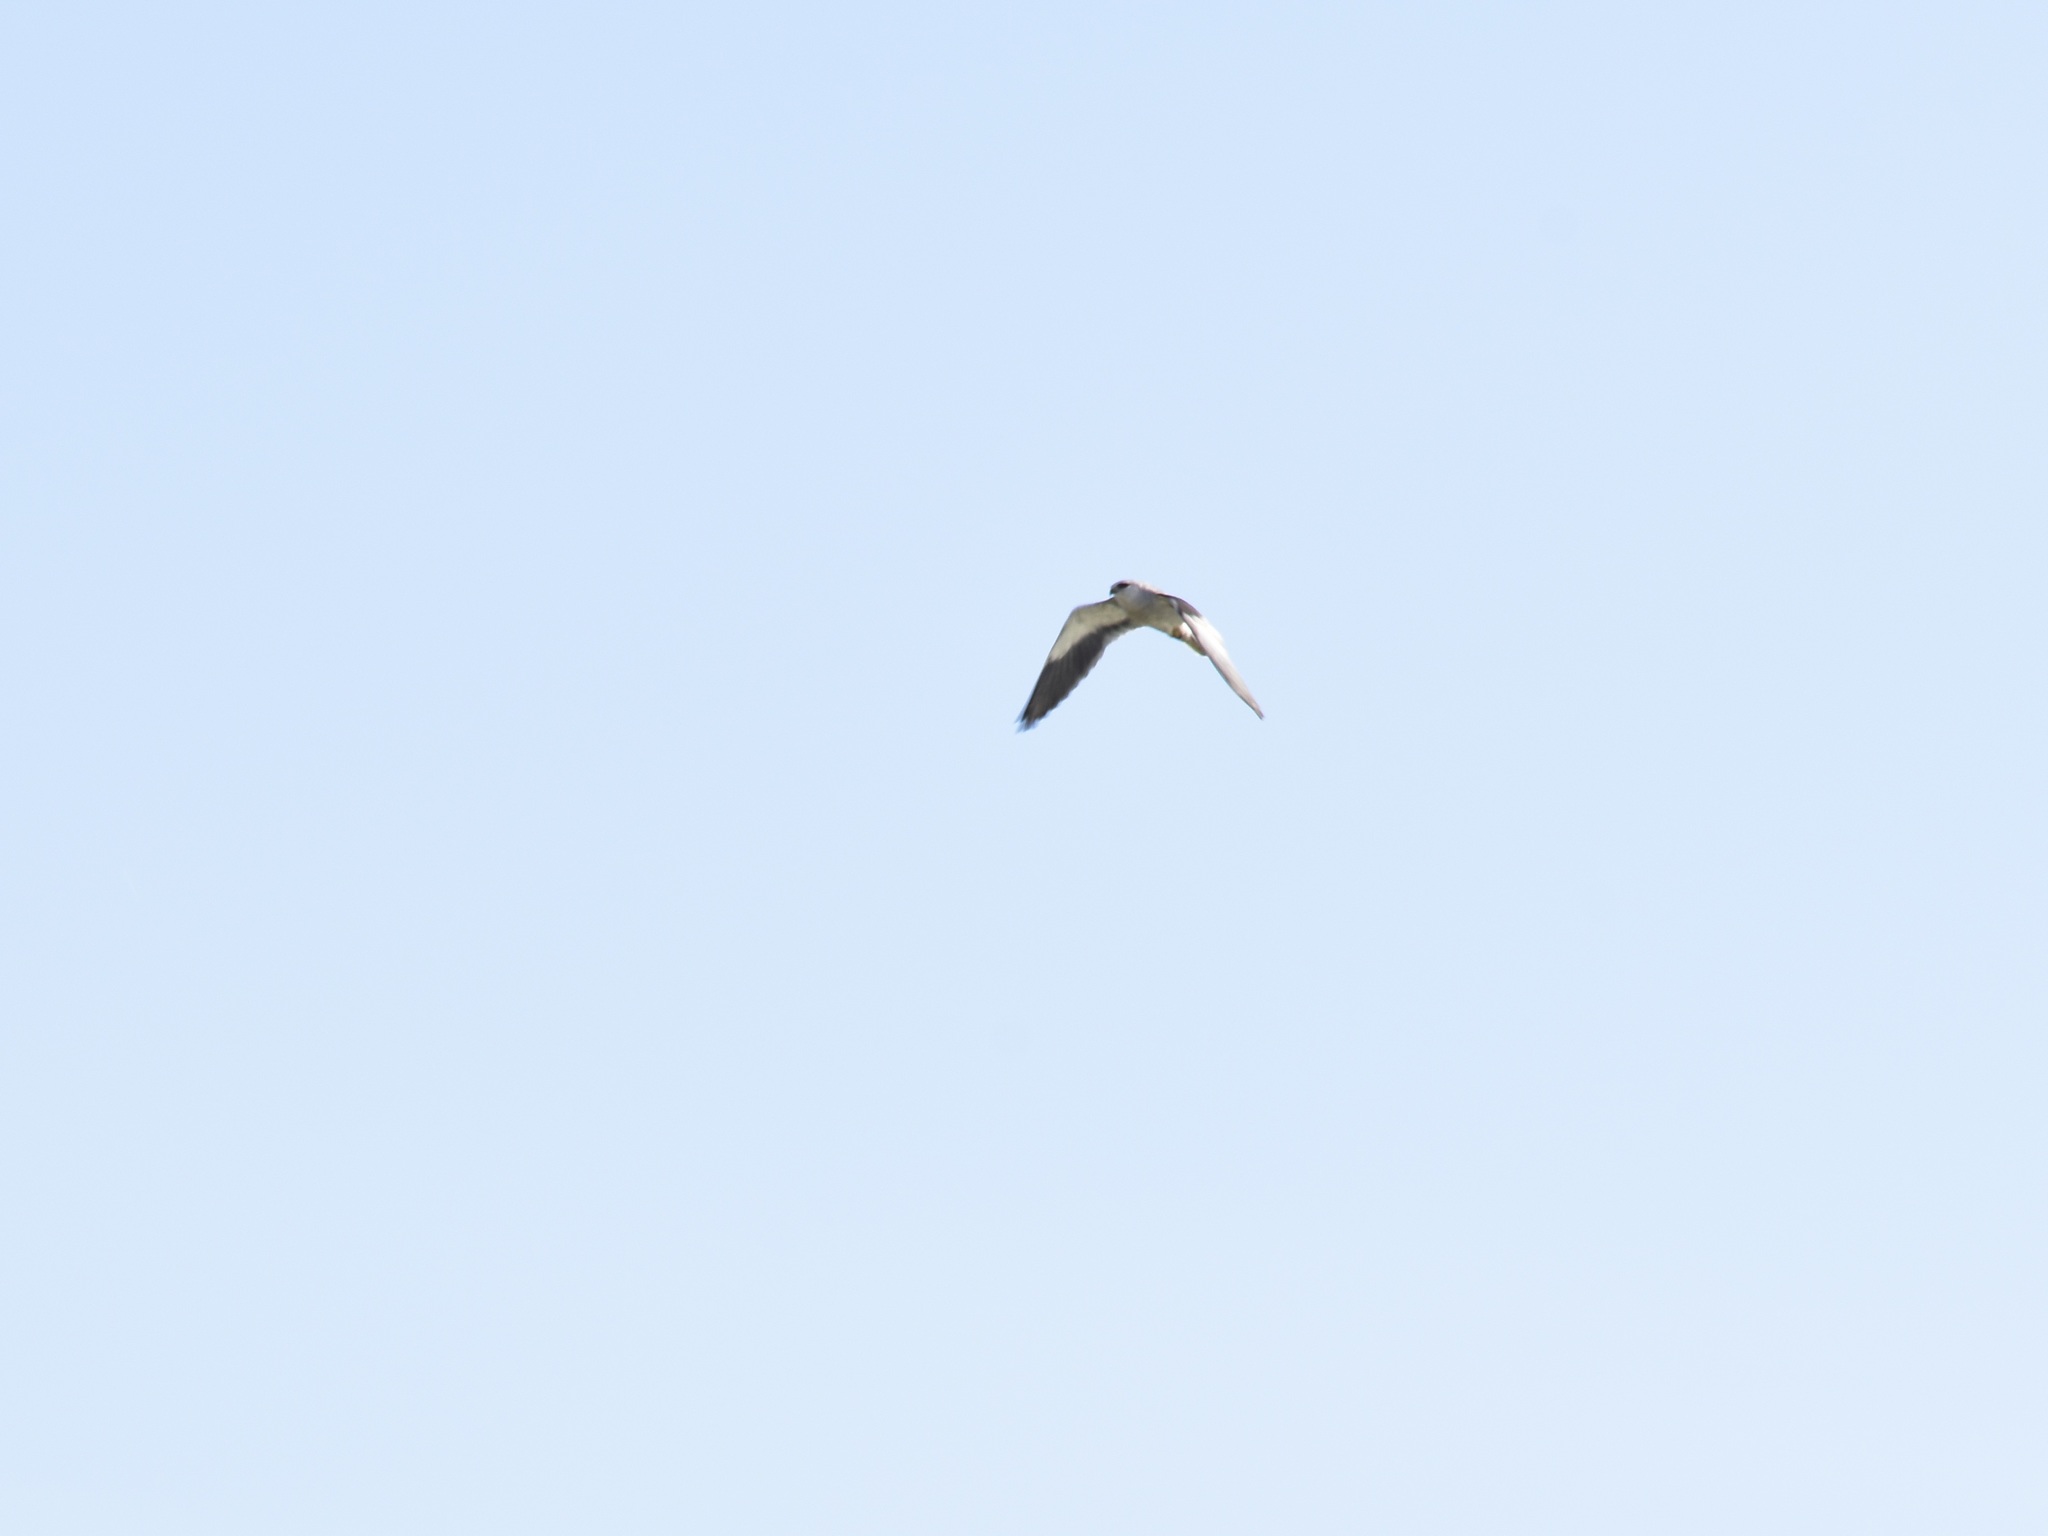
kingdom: Animalia
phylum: Chordata
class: Aves
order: Accipitriformes
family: Accipitridae
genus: Elanus
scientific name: Elanus caeruleus
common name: Black-winged kite
